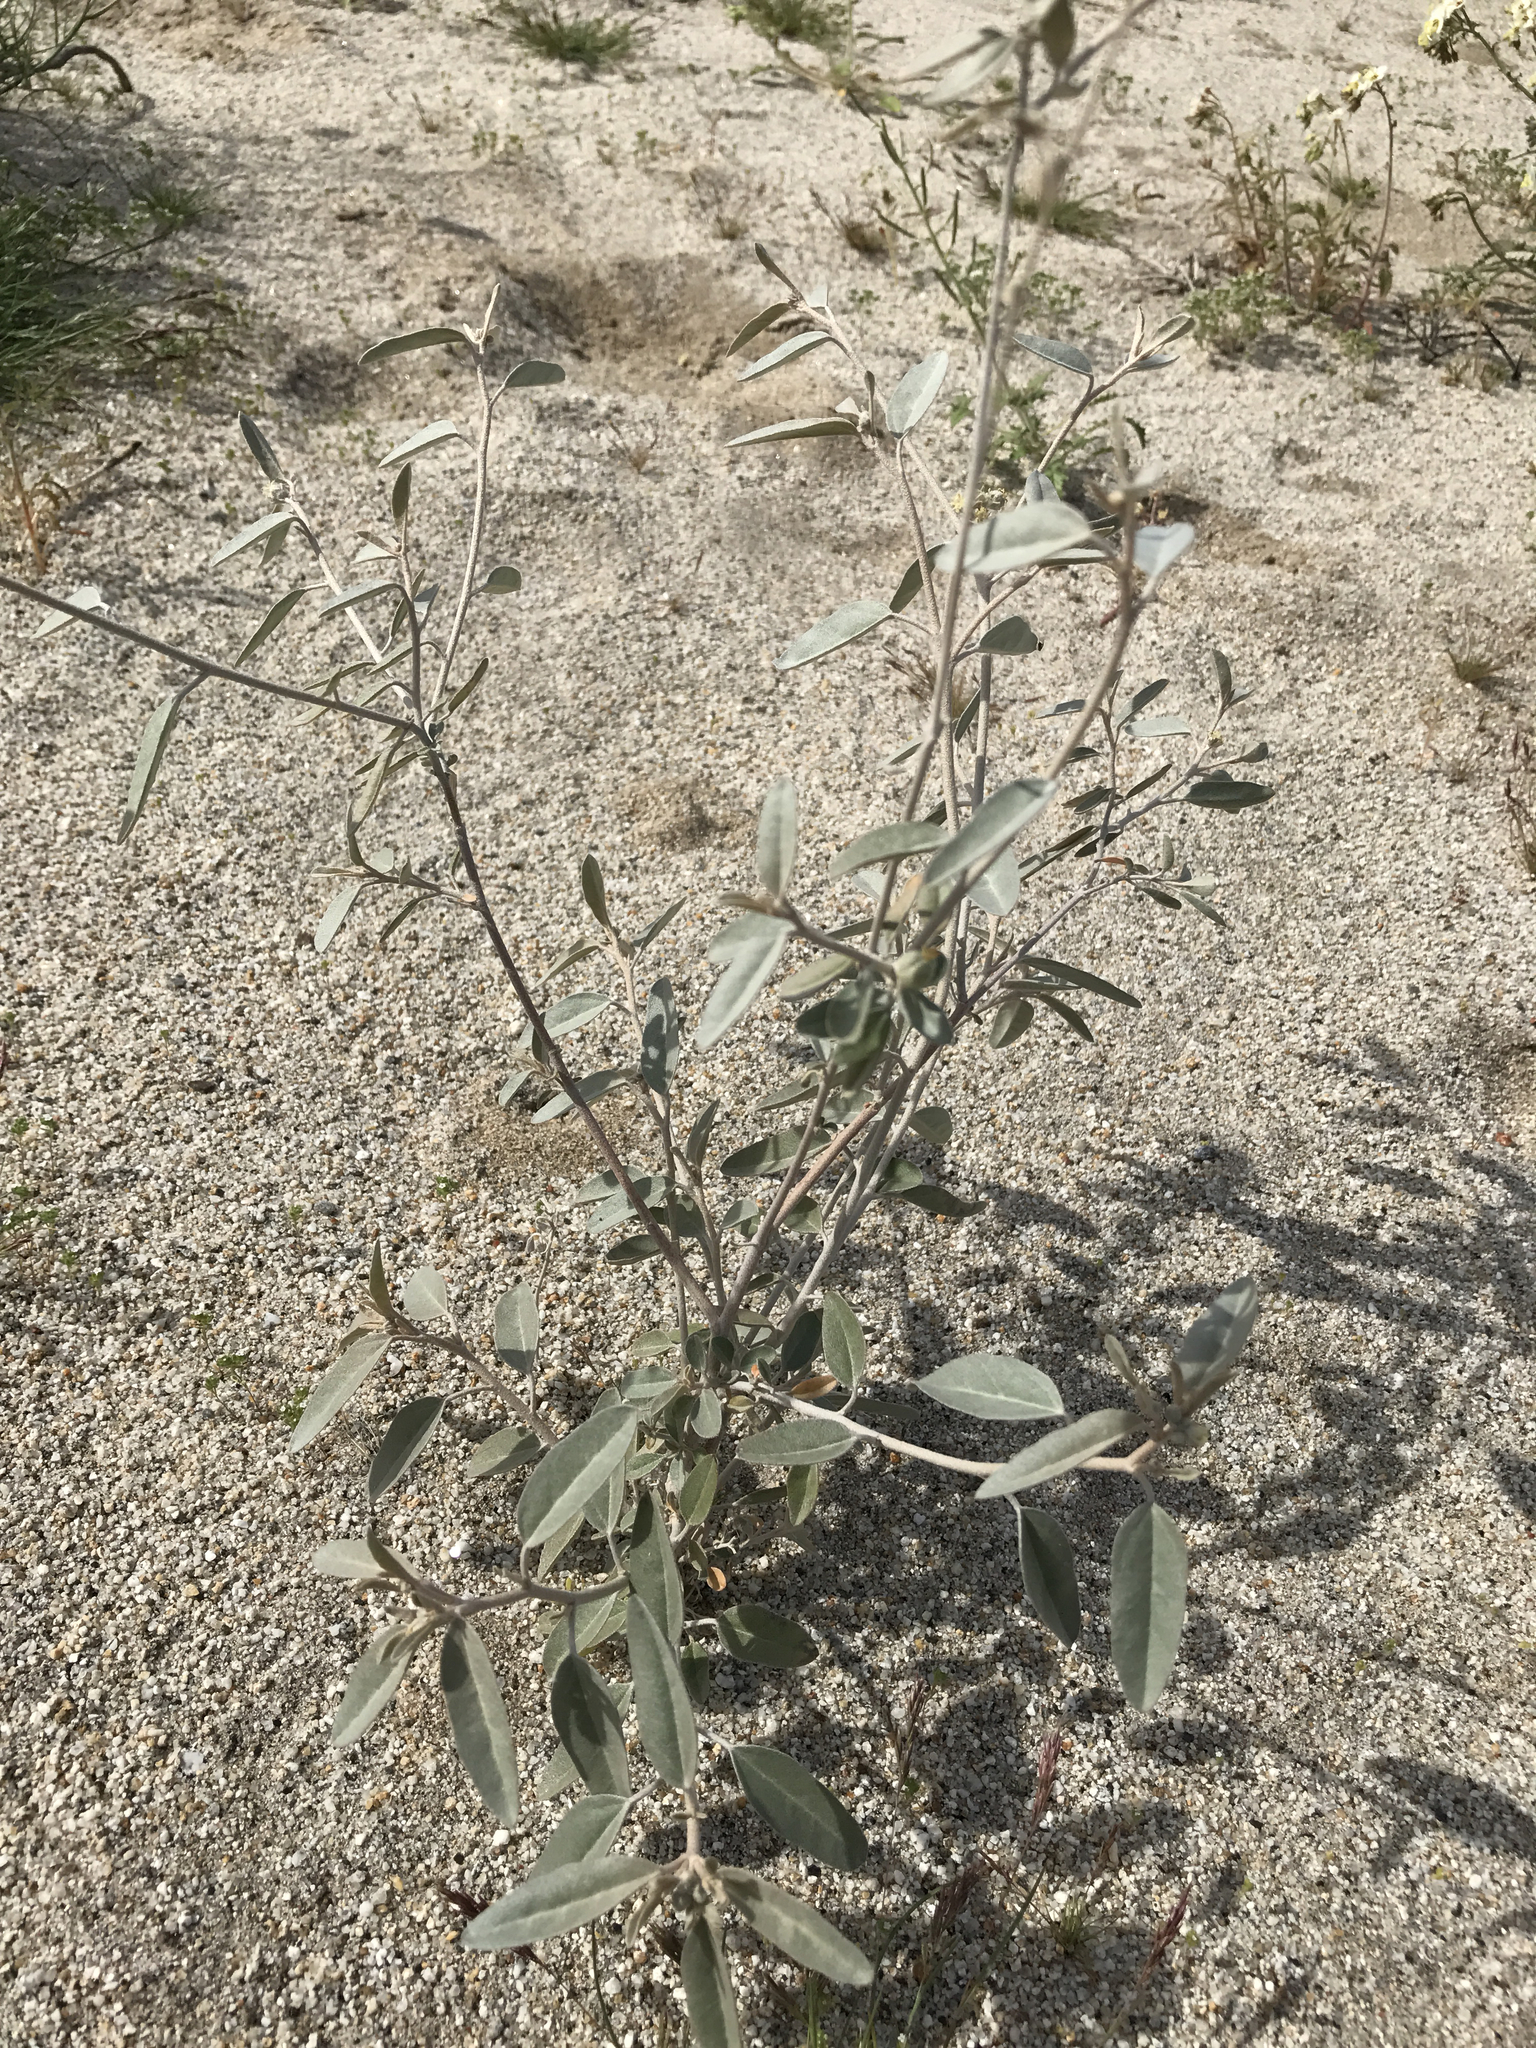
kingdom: Plantae
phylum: Tracheophyta
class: Magnoliopsida
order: Malpighiales
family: Euphorbiaceae
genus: Croton
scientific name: Croton californicus
